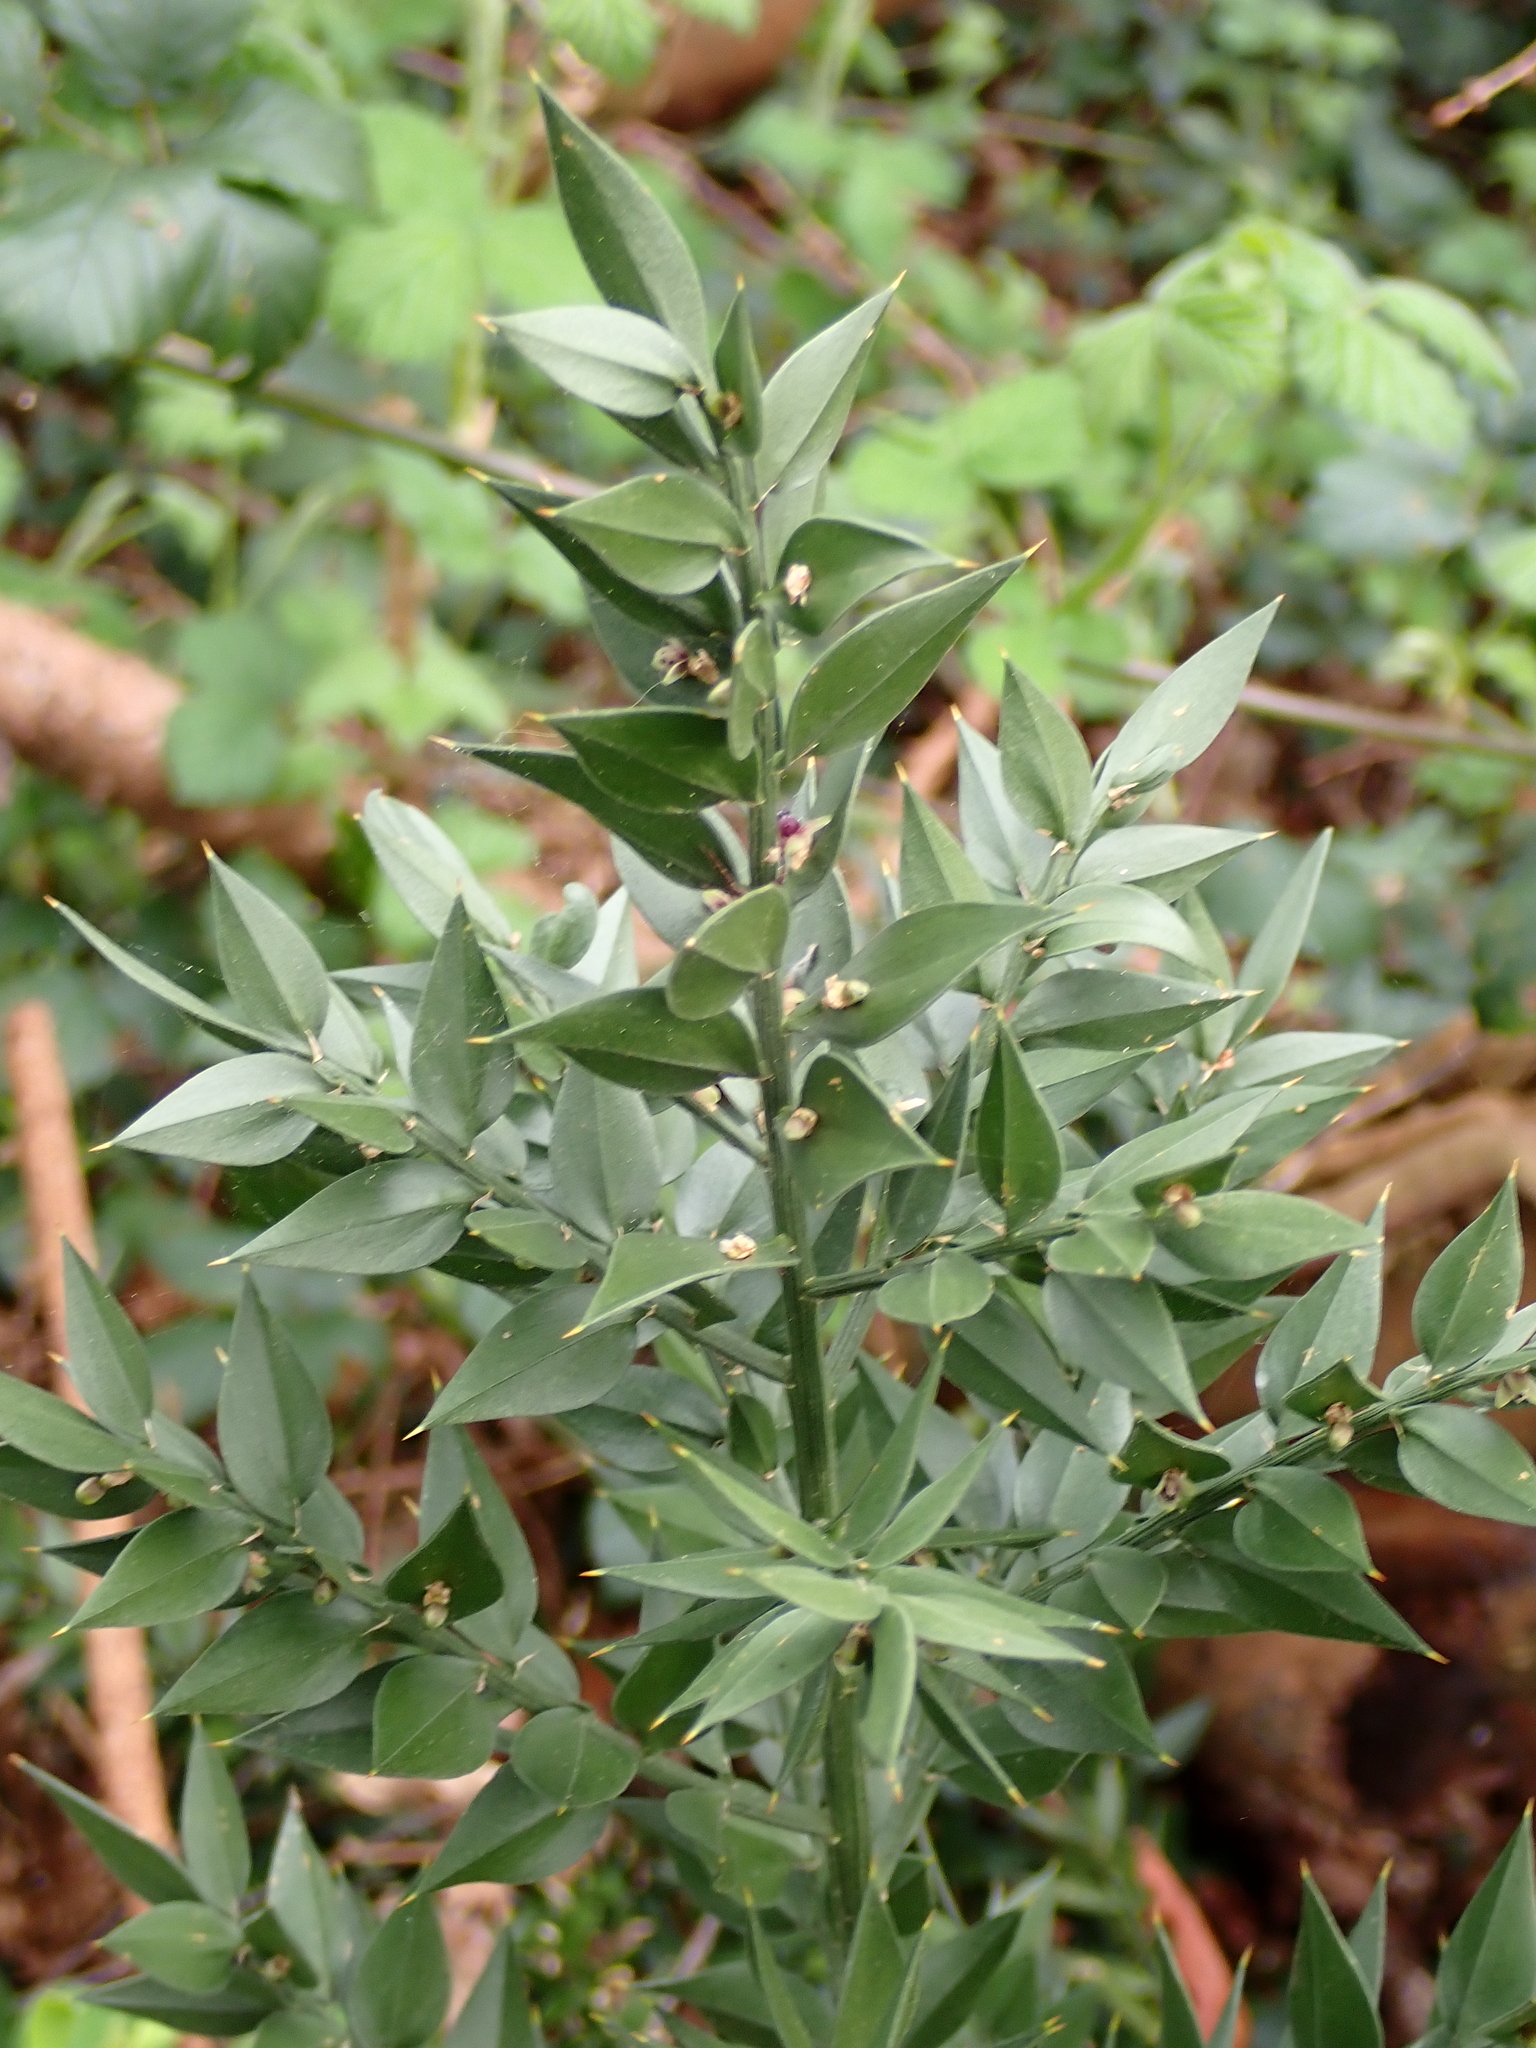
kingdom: Plantae
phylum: Tracheophyta
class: Liliopsida
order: Asparagales
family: Asparagaceae
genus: Ruscus
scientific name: Ruscus aculeatus
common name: Butcher's-broom
